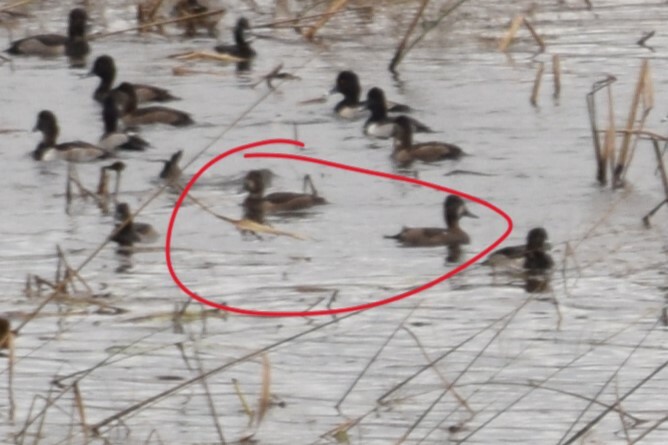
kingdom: Animalia
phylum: Chordata
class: Aves
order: Anseriformes
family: Anatidae
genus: Aythya
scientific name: Aythya collaris
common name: Ring-necked duck
